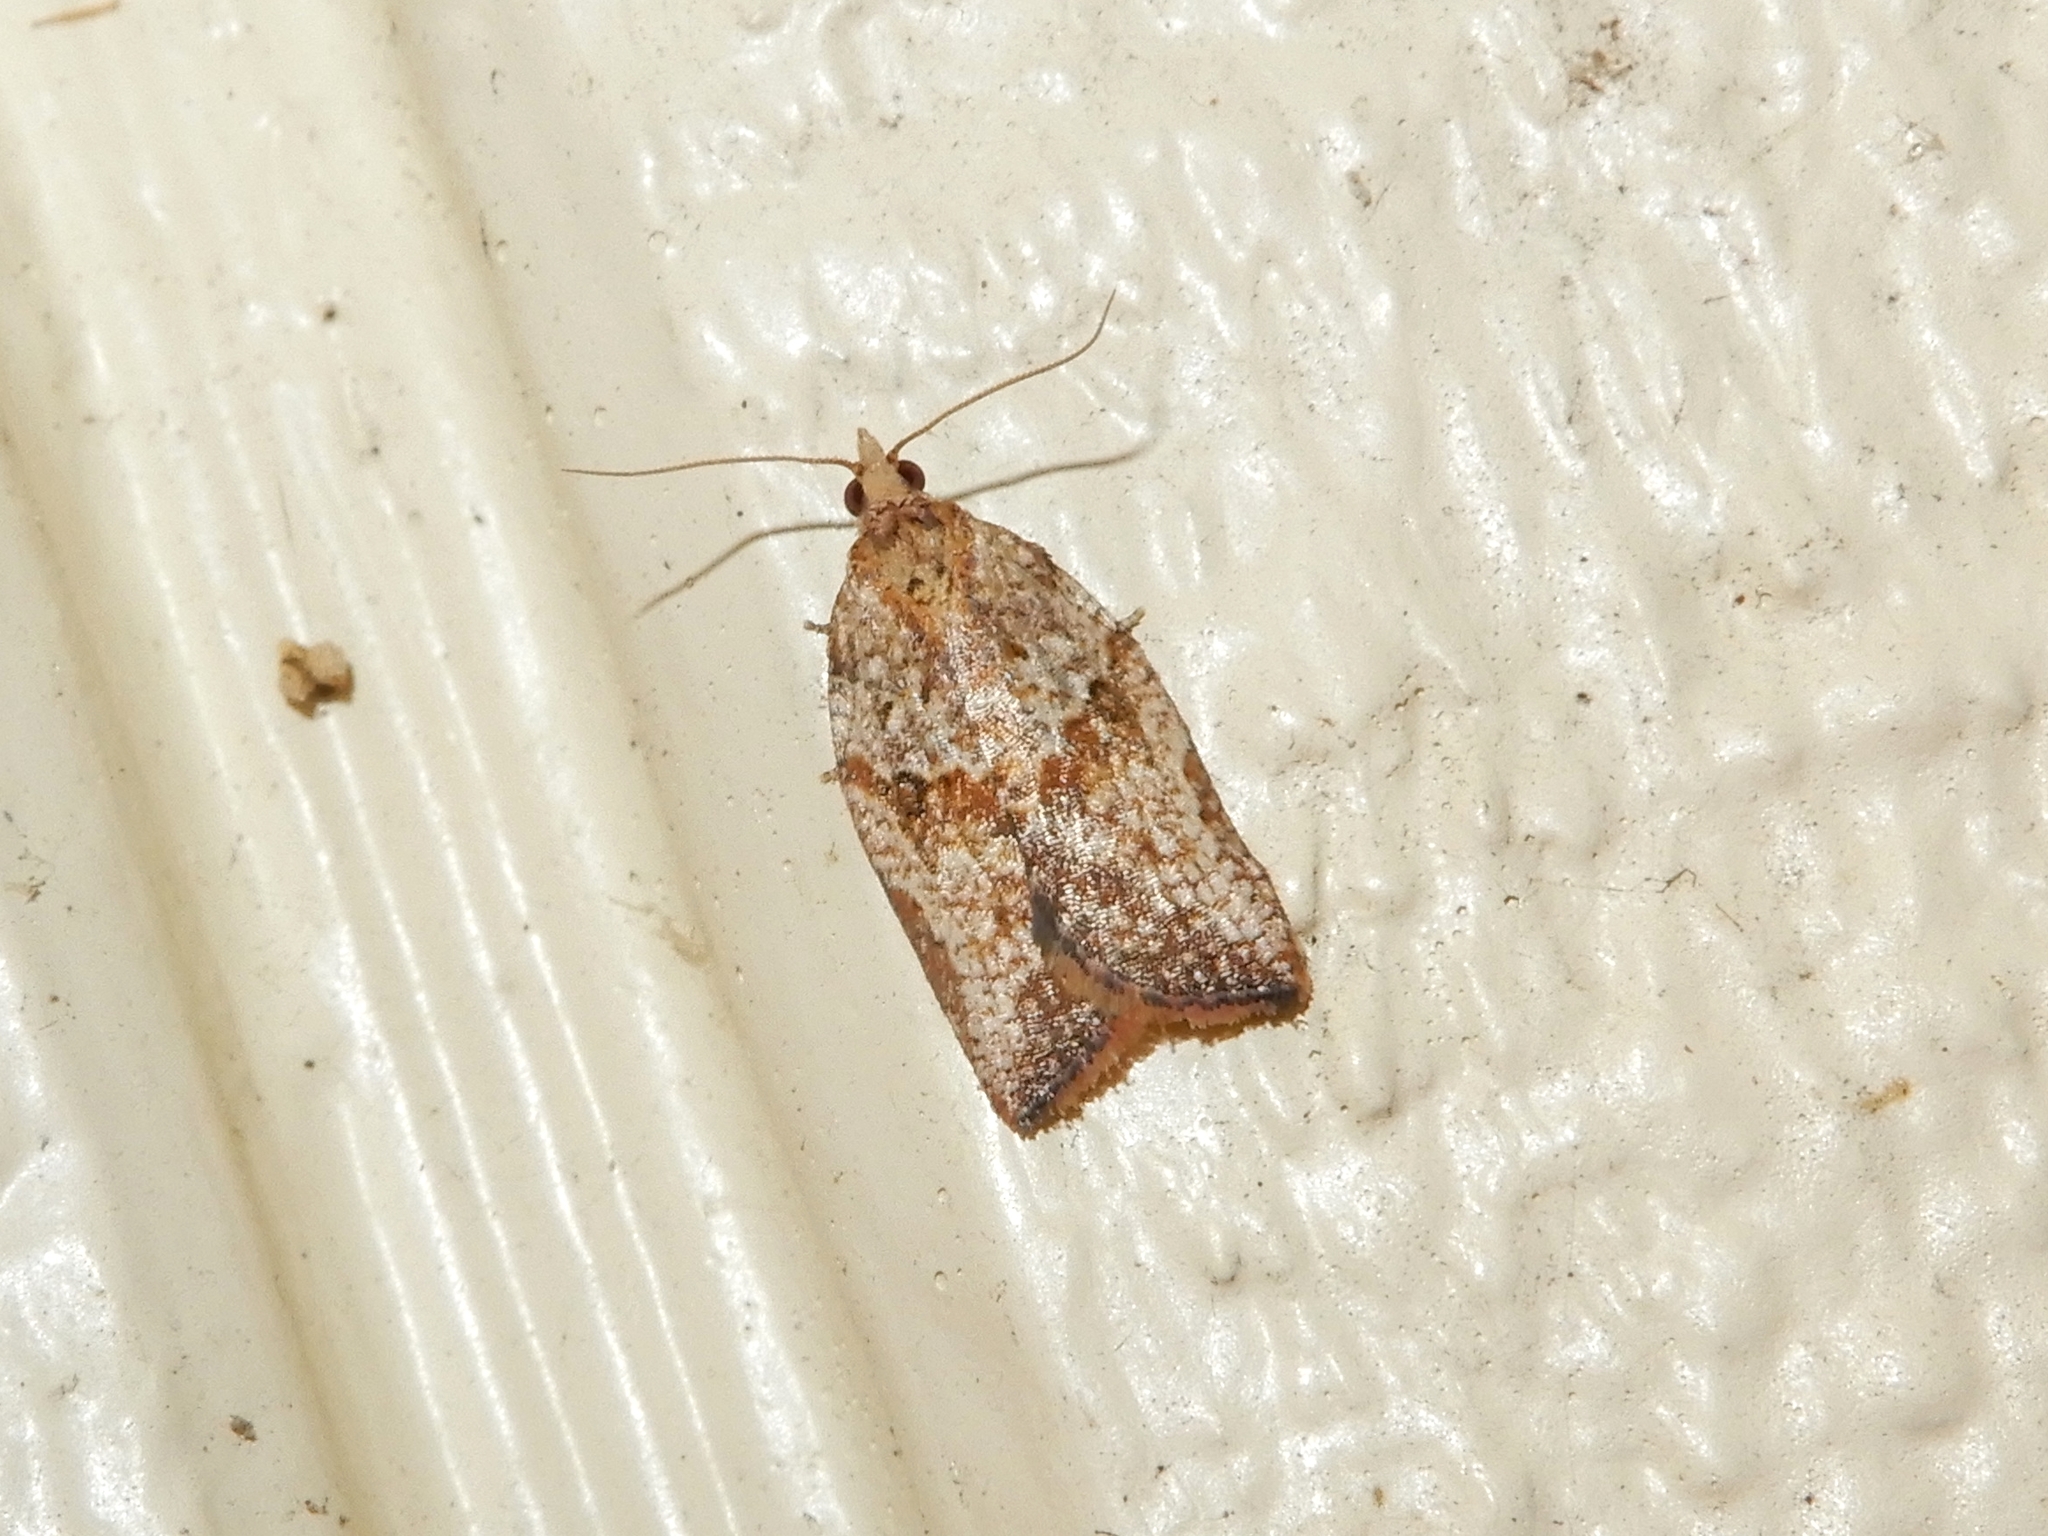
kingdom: Animalia
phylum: Arthropoda
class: Insecta
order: Lepidoptera
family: Tortricidae
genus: Epiphyas
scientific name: Epiphyas postvittana
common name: Light brown apple moth
